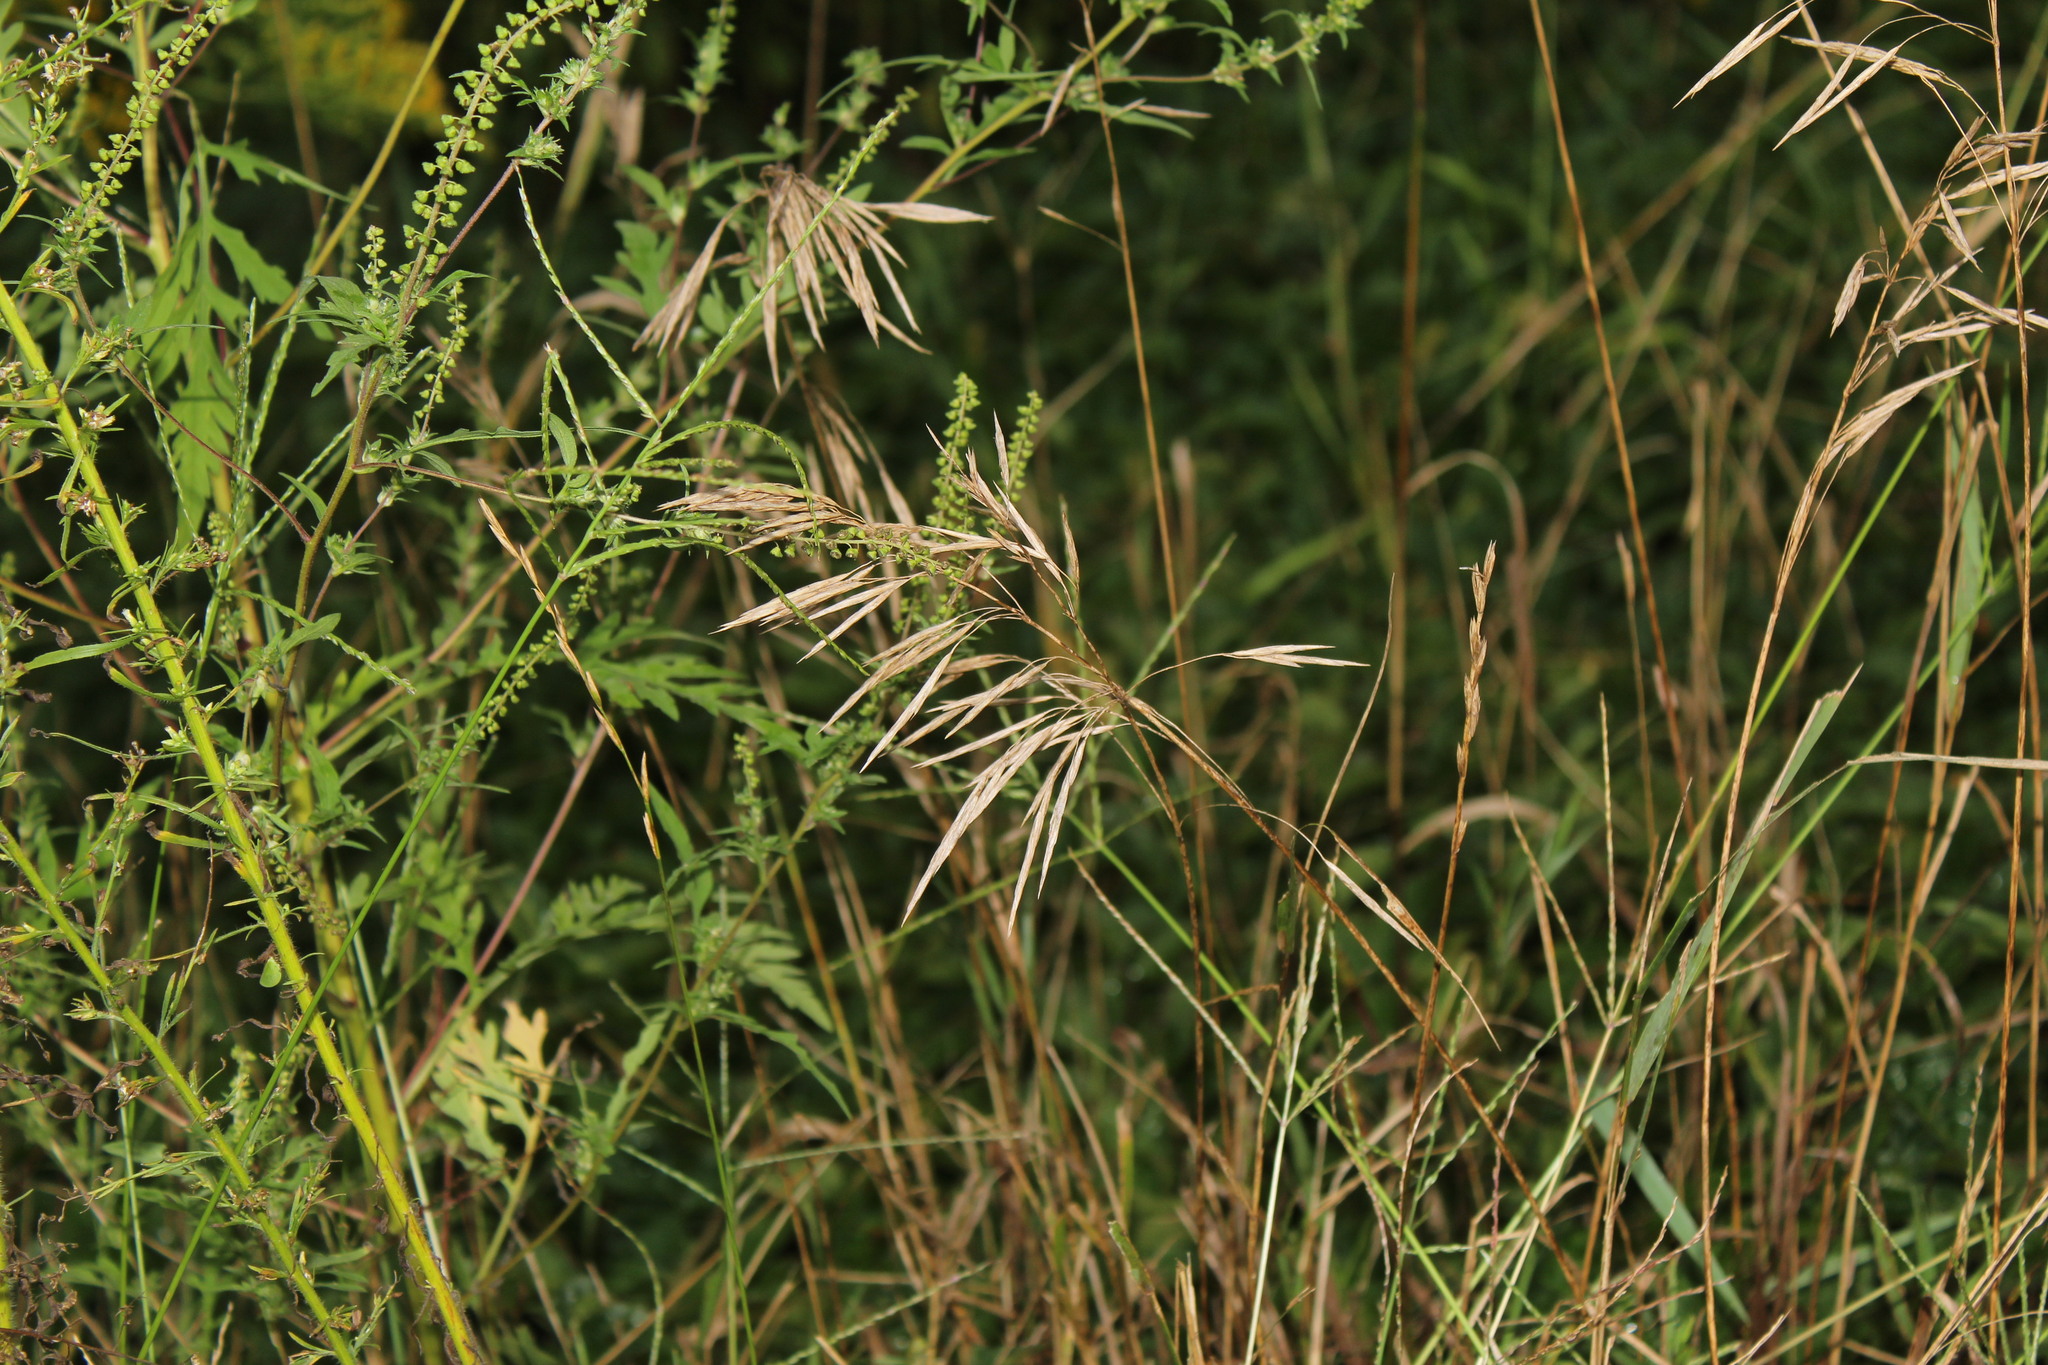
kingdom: Plantae
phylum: Tracheophyta
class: Liliopsida
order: Poales
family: Poaceae
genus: Bromus
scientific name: Bromus inermis
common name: Smooth brome
